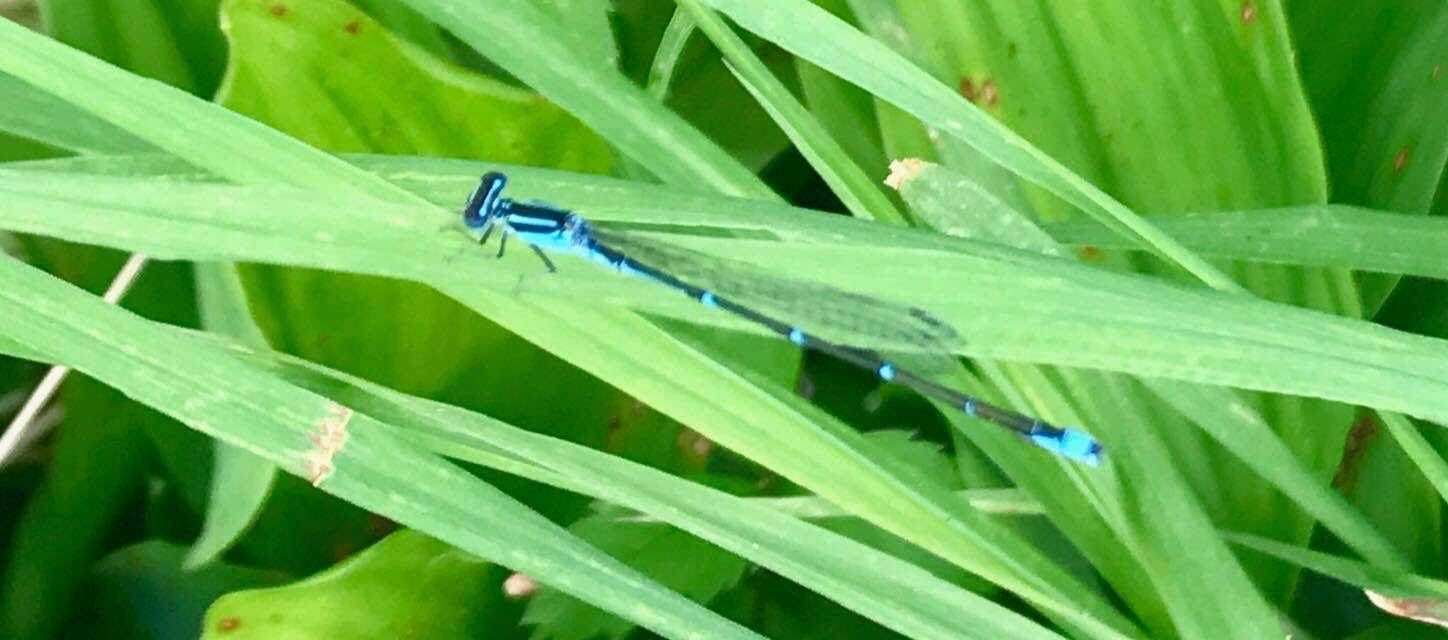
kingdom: Animalia
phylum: Arthropoda
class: Insecta
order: Odonata
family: Coenagrionidae
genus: Enallagma
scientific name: Enallagma exsulans
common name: Stream bluet
